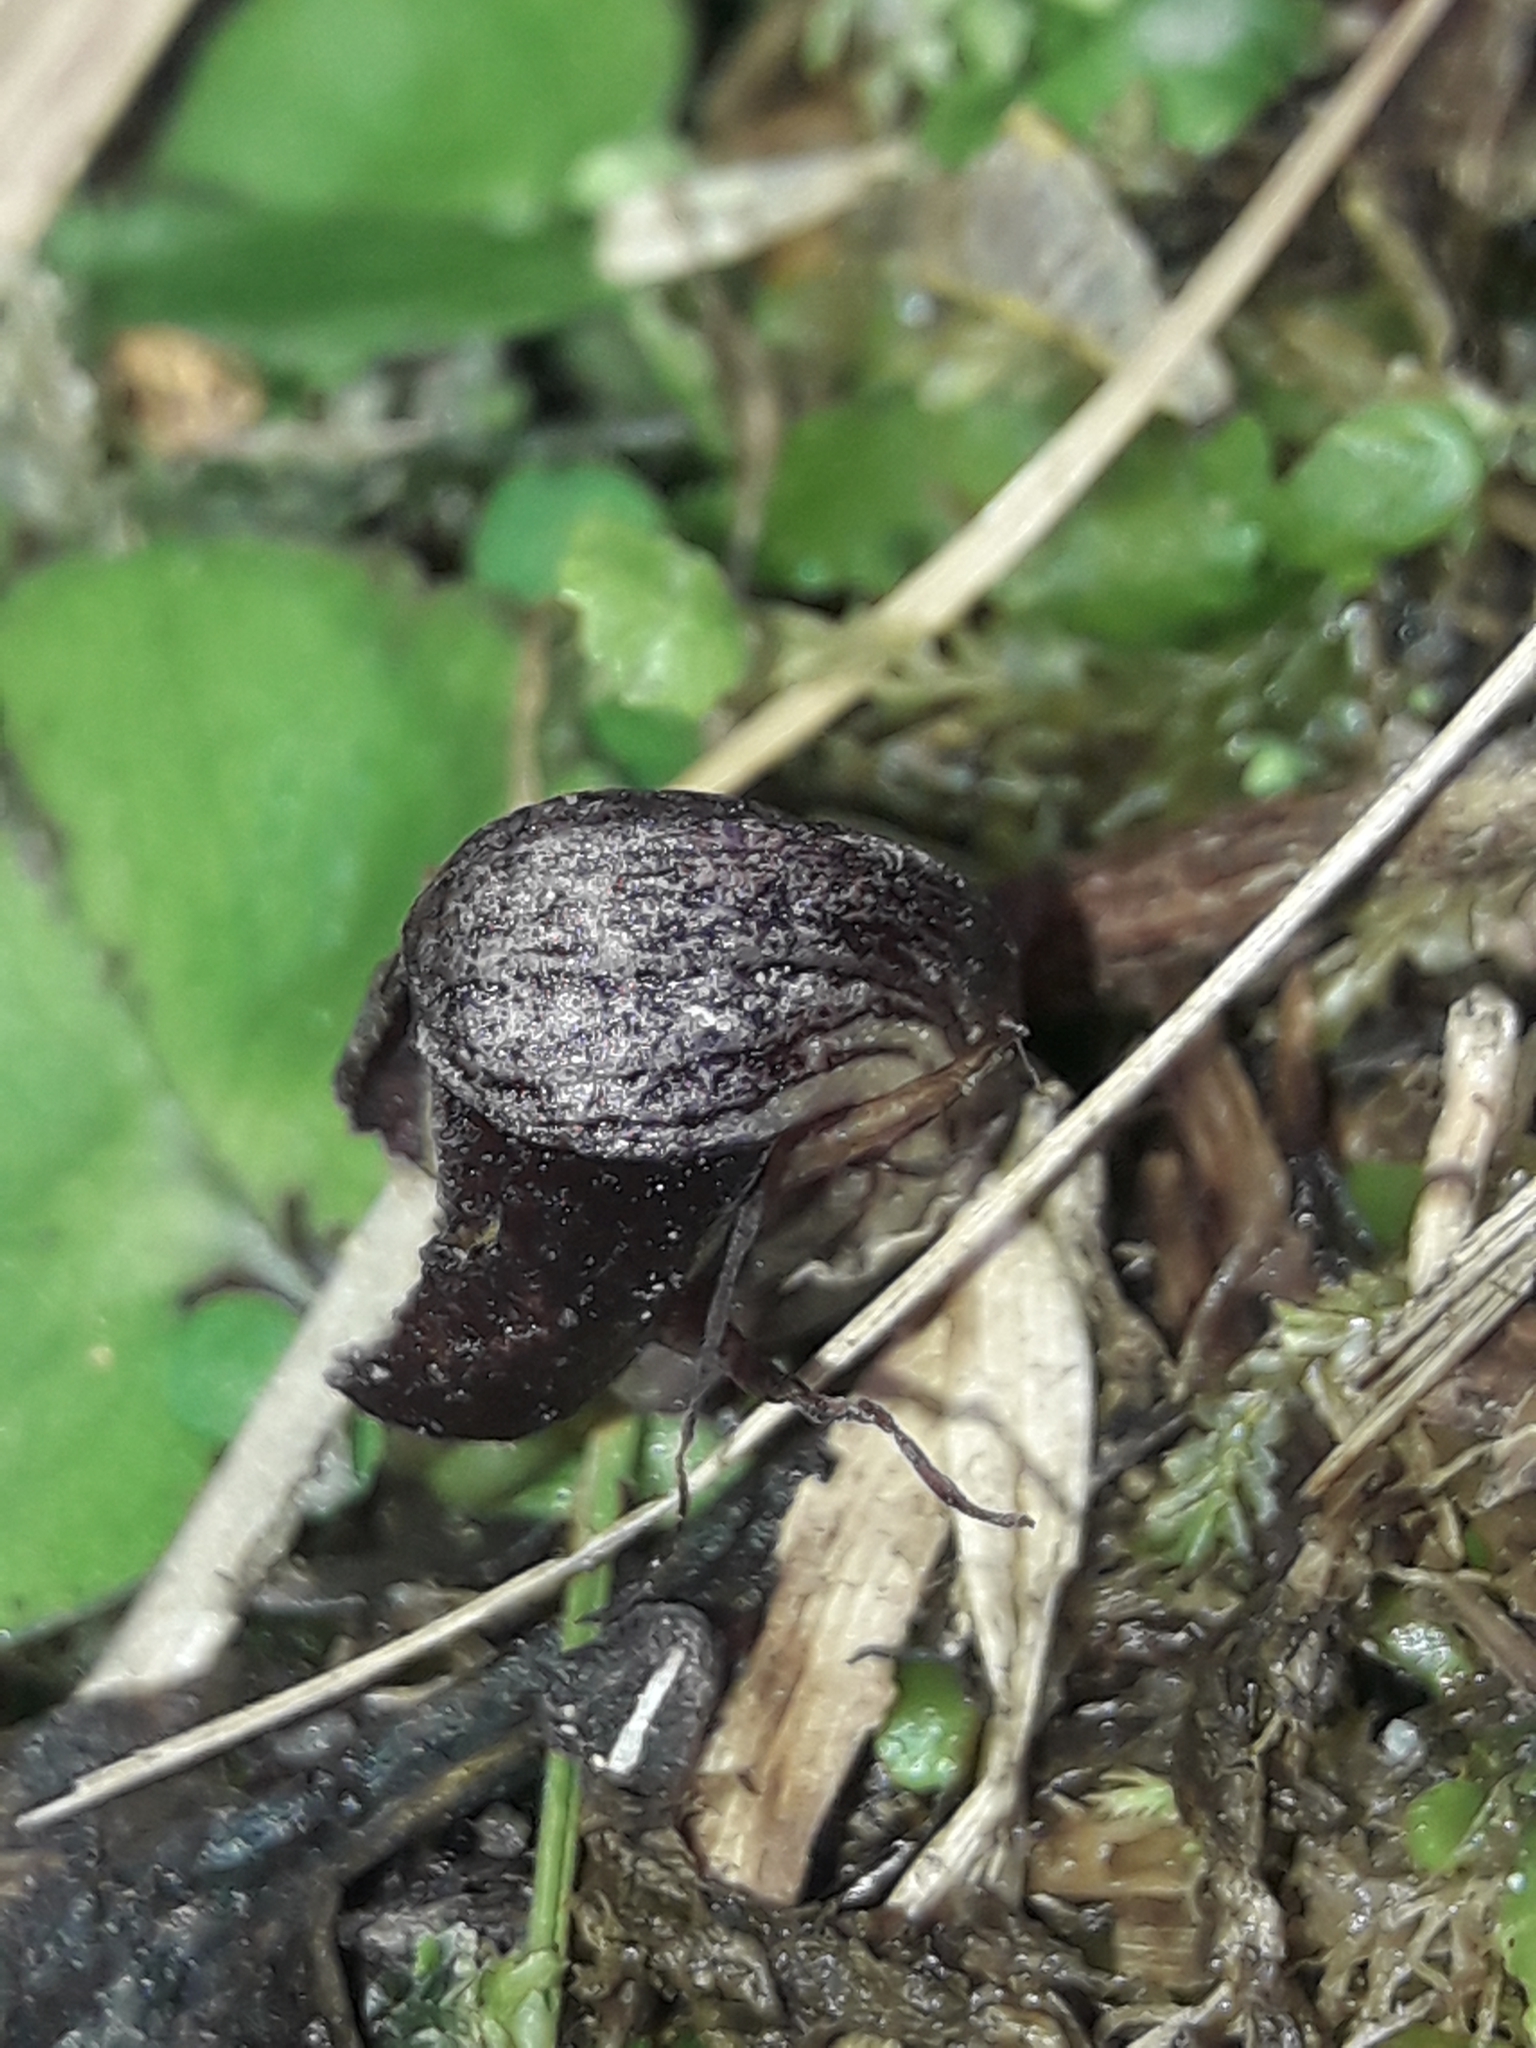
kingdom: Plantae
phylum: Tracheophyta
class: Liliopsida
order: Asparagales
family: Orchidaceae
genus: Corybas
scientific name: Corybas confusus
